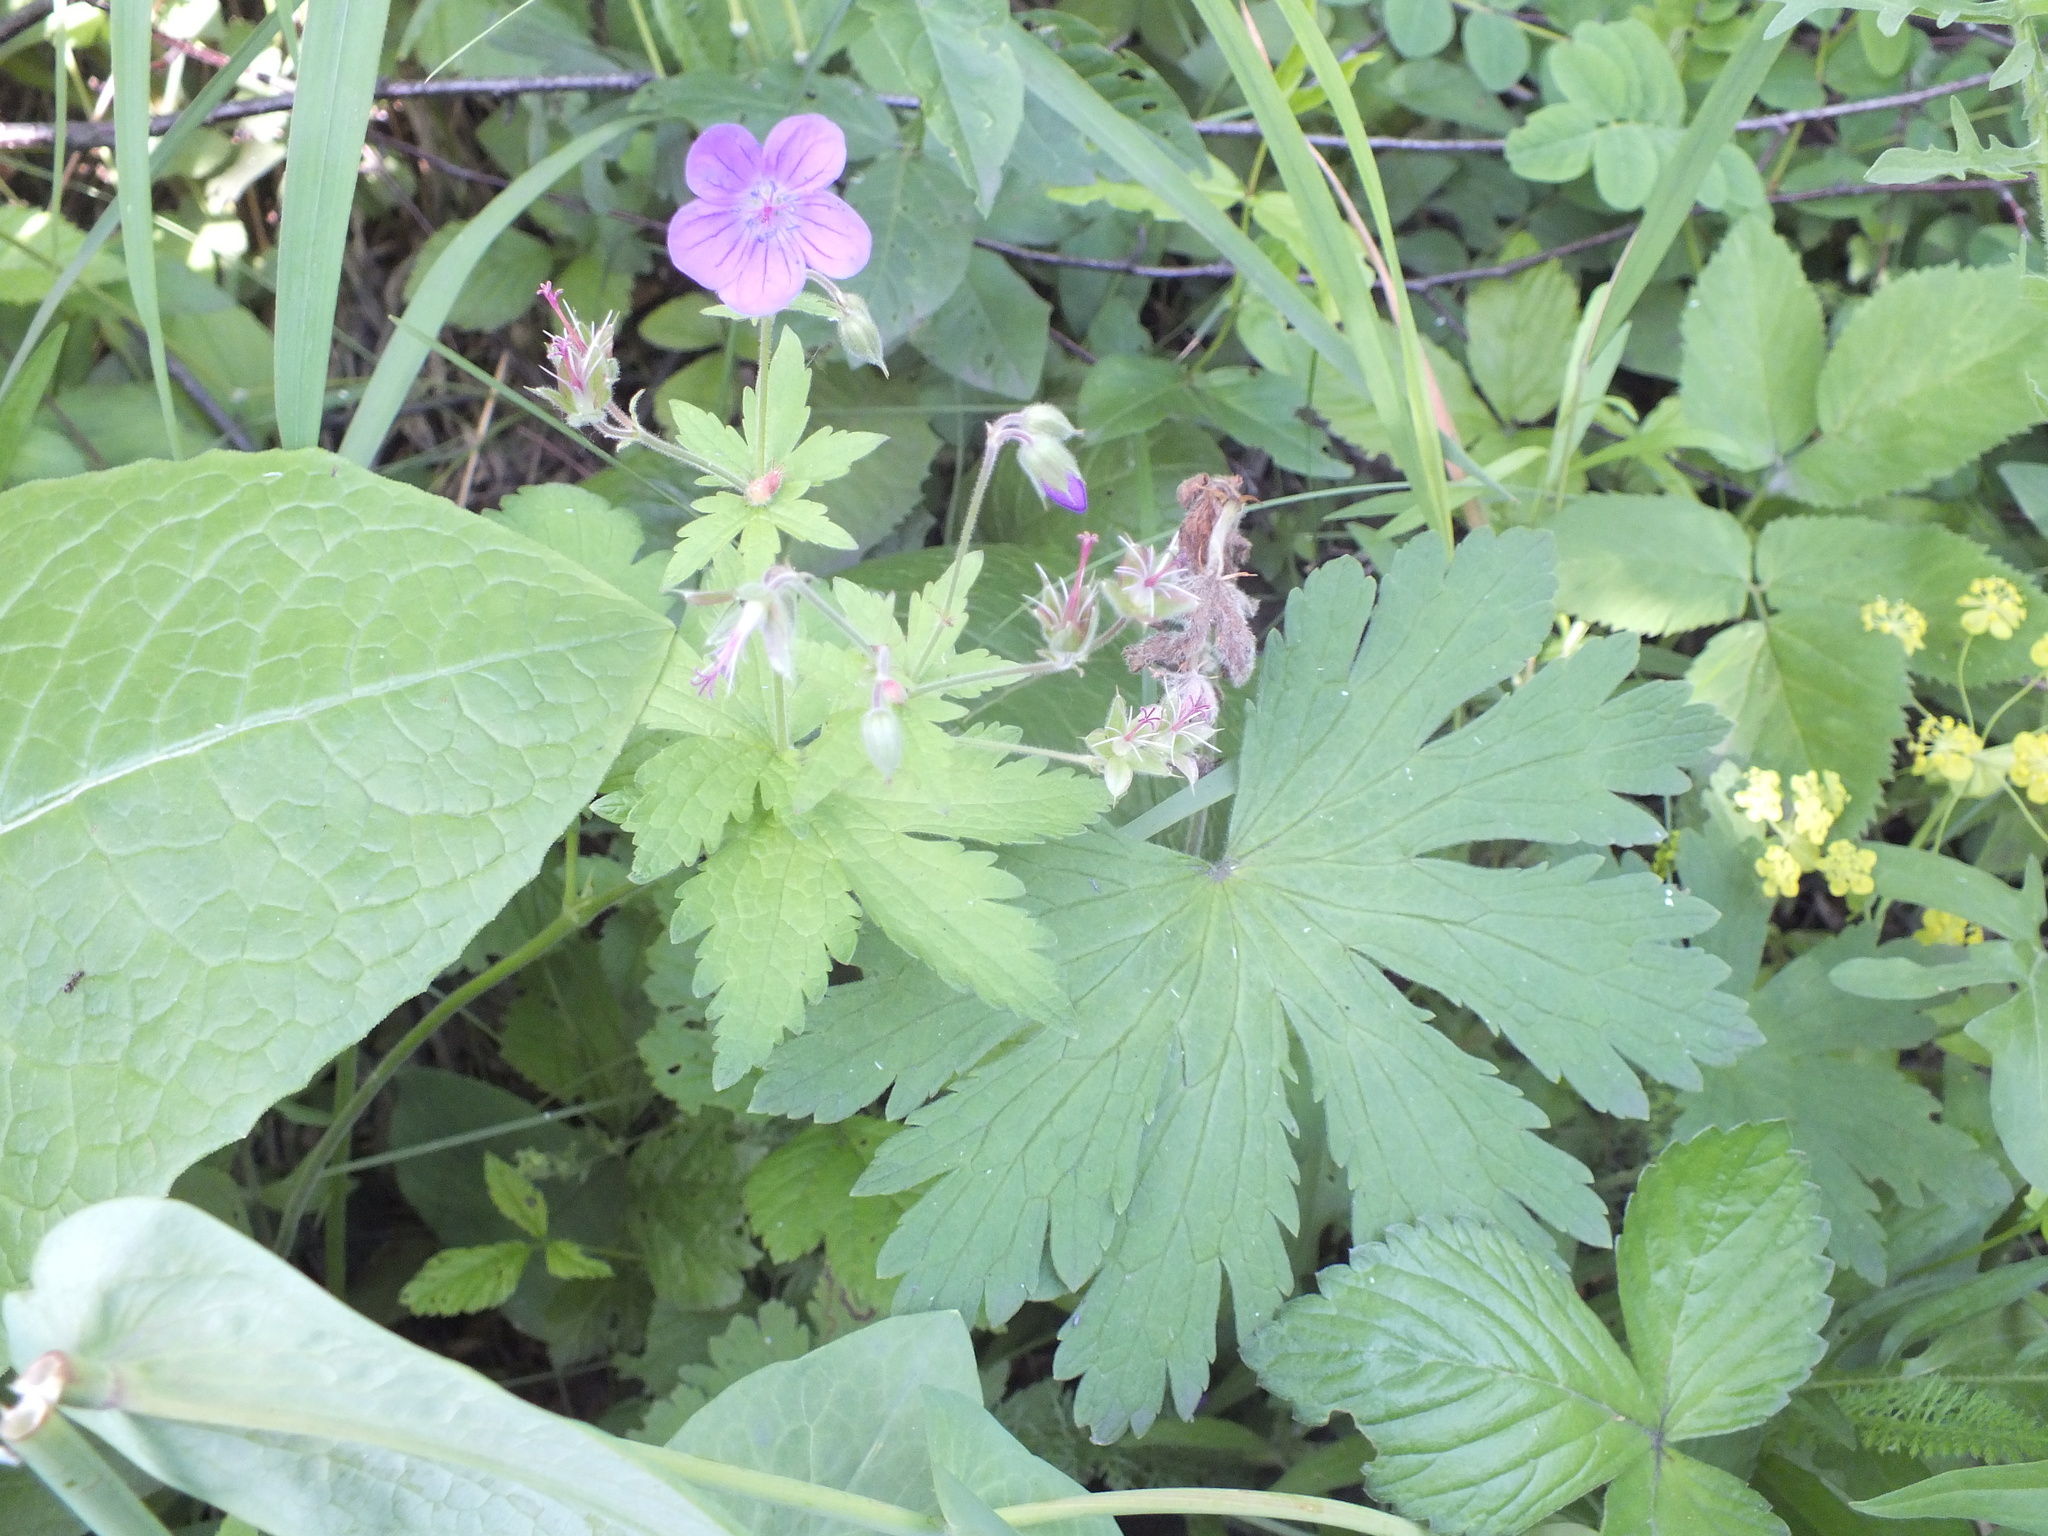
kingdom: Plantae
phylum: Tracheophyta
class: Magnoliopsida
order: Geraniales
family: Geraniaceae
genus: Geranium
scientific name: Geranium sylvaticum
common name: Wood crane's-bill
